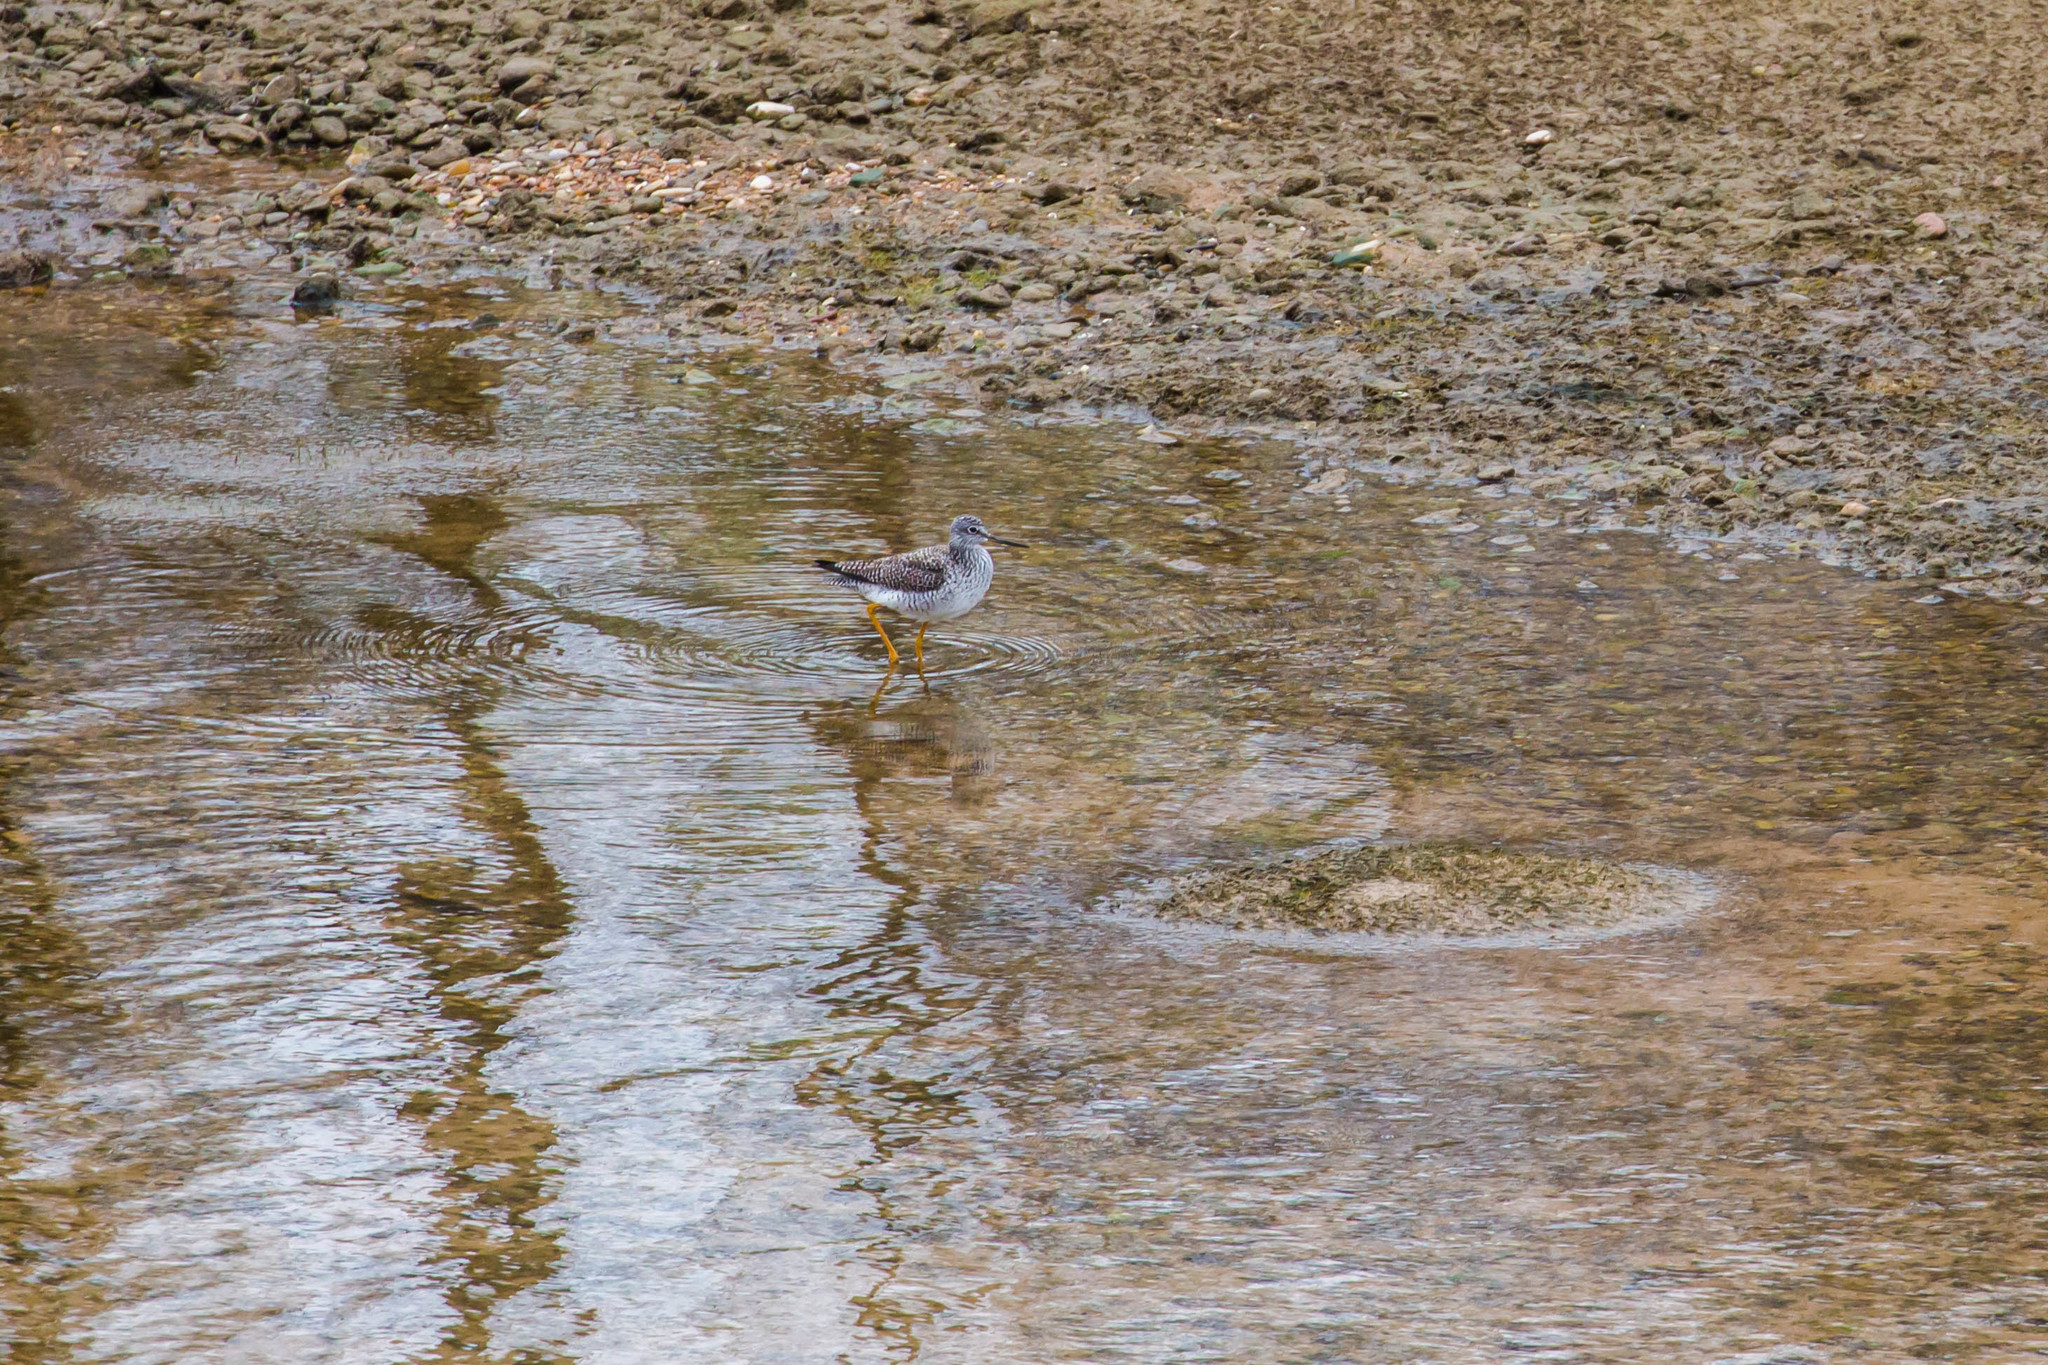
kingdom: Animalia
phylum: Chordata
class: Aves
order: Charadriiformes
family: Scolopacidae
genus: Tringa
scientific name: Tringa melanoleuca
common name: Greater yellowlegs
